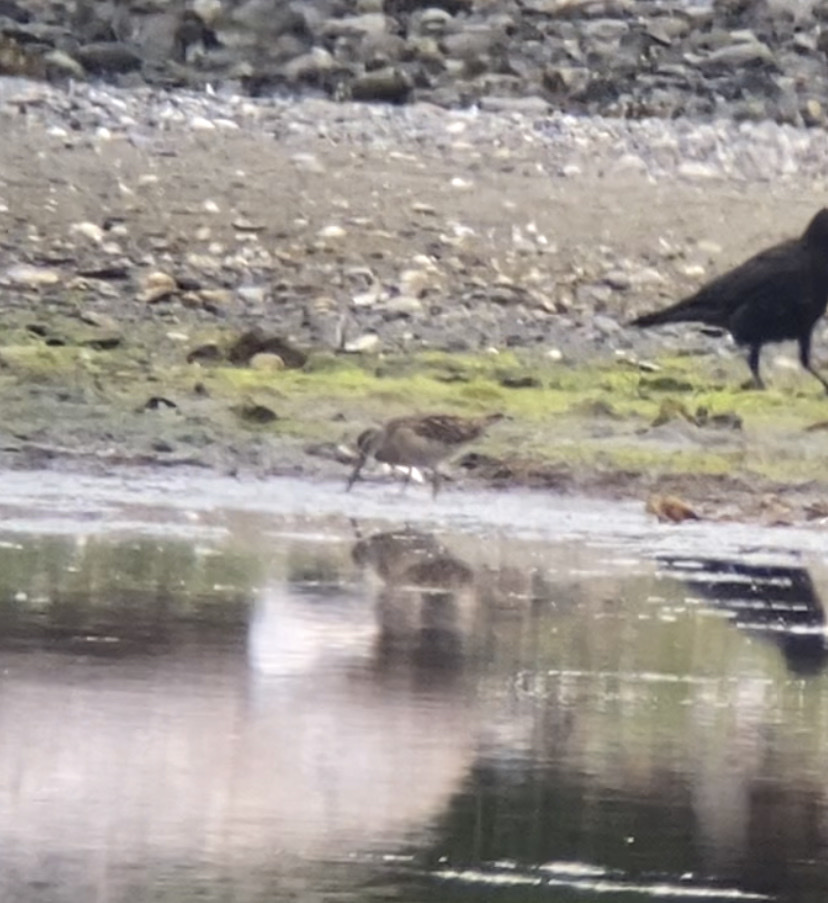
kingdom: Animalia
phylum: Chordata
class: Aves
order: Passeriformes
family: Corvidae
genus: Corvus
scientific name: Corvus brachyrhynchos
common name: American crow
